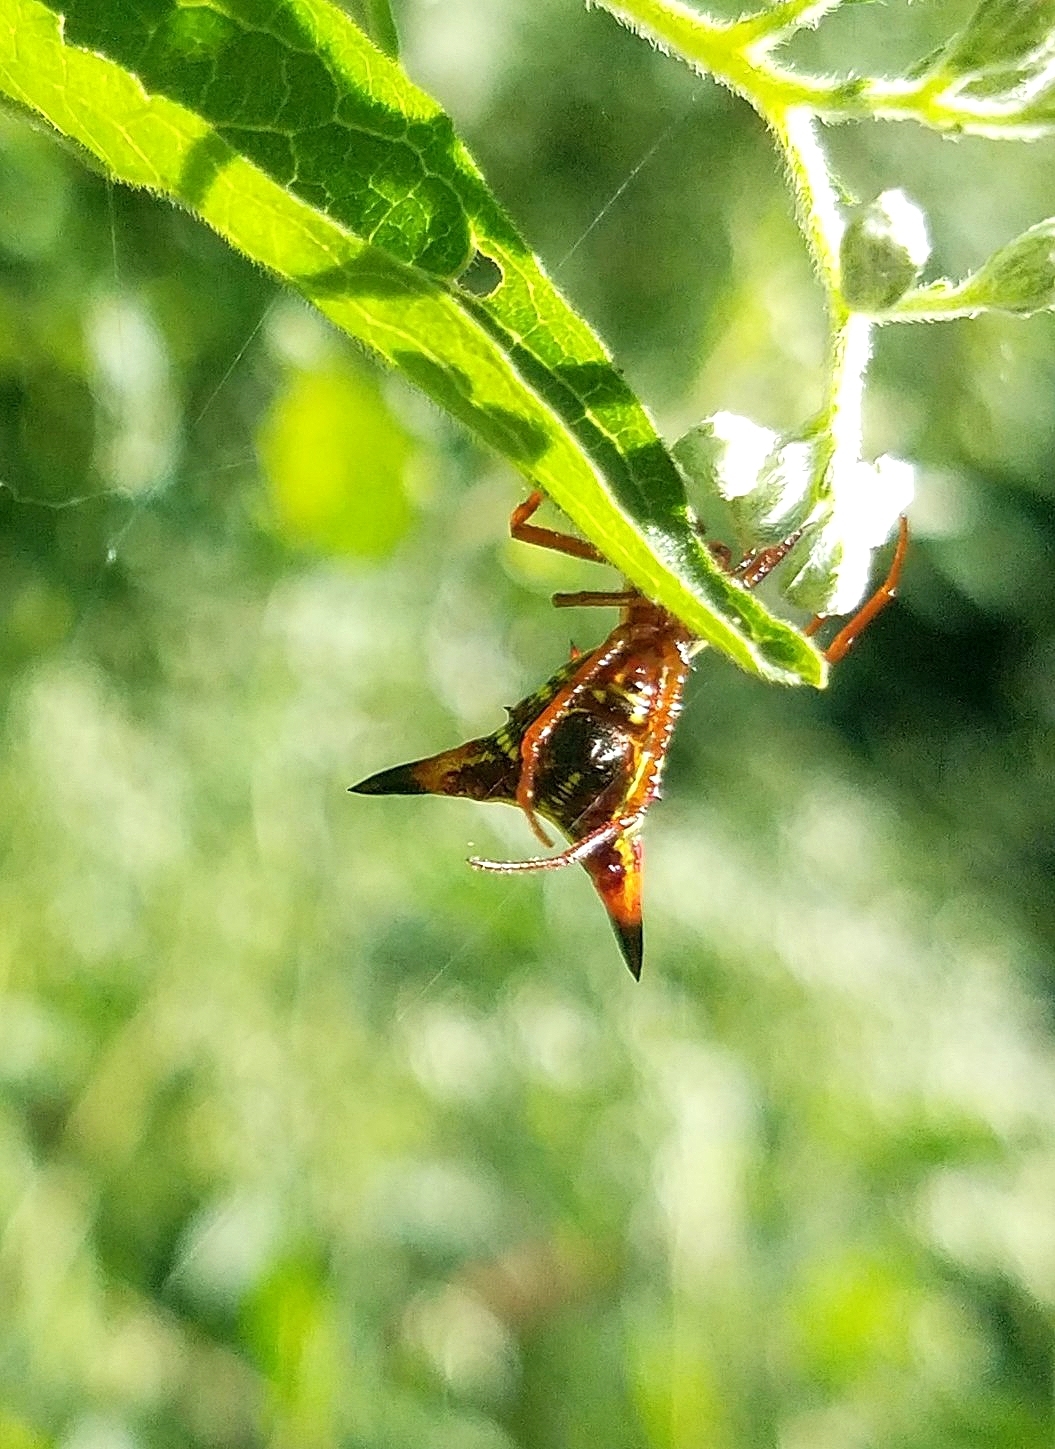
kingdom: Animalia
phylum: Arthropoda
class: Arachnida
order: Araneae
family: Araneidae
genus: Micrathena
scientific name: Micrathena sagittata
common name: Orb weavers
